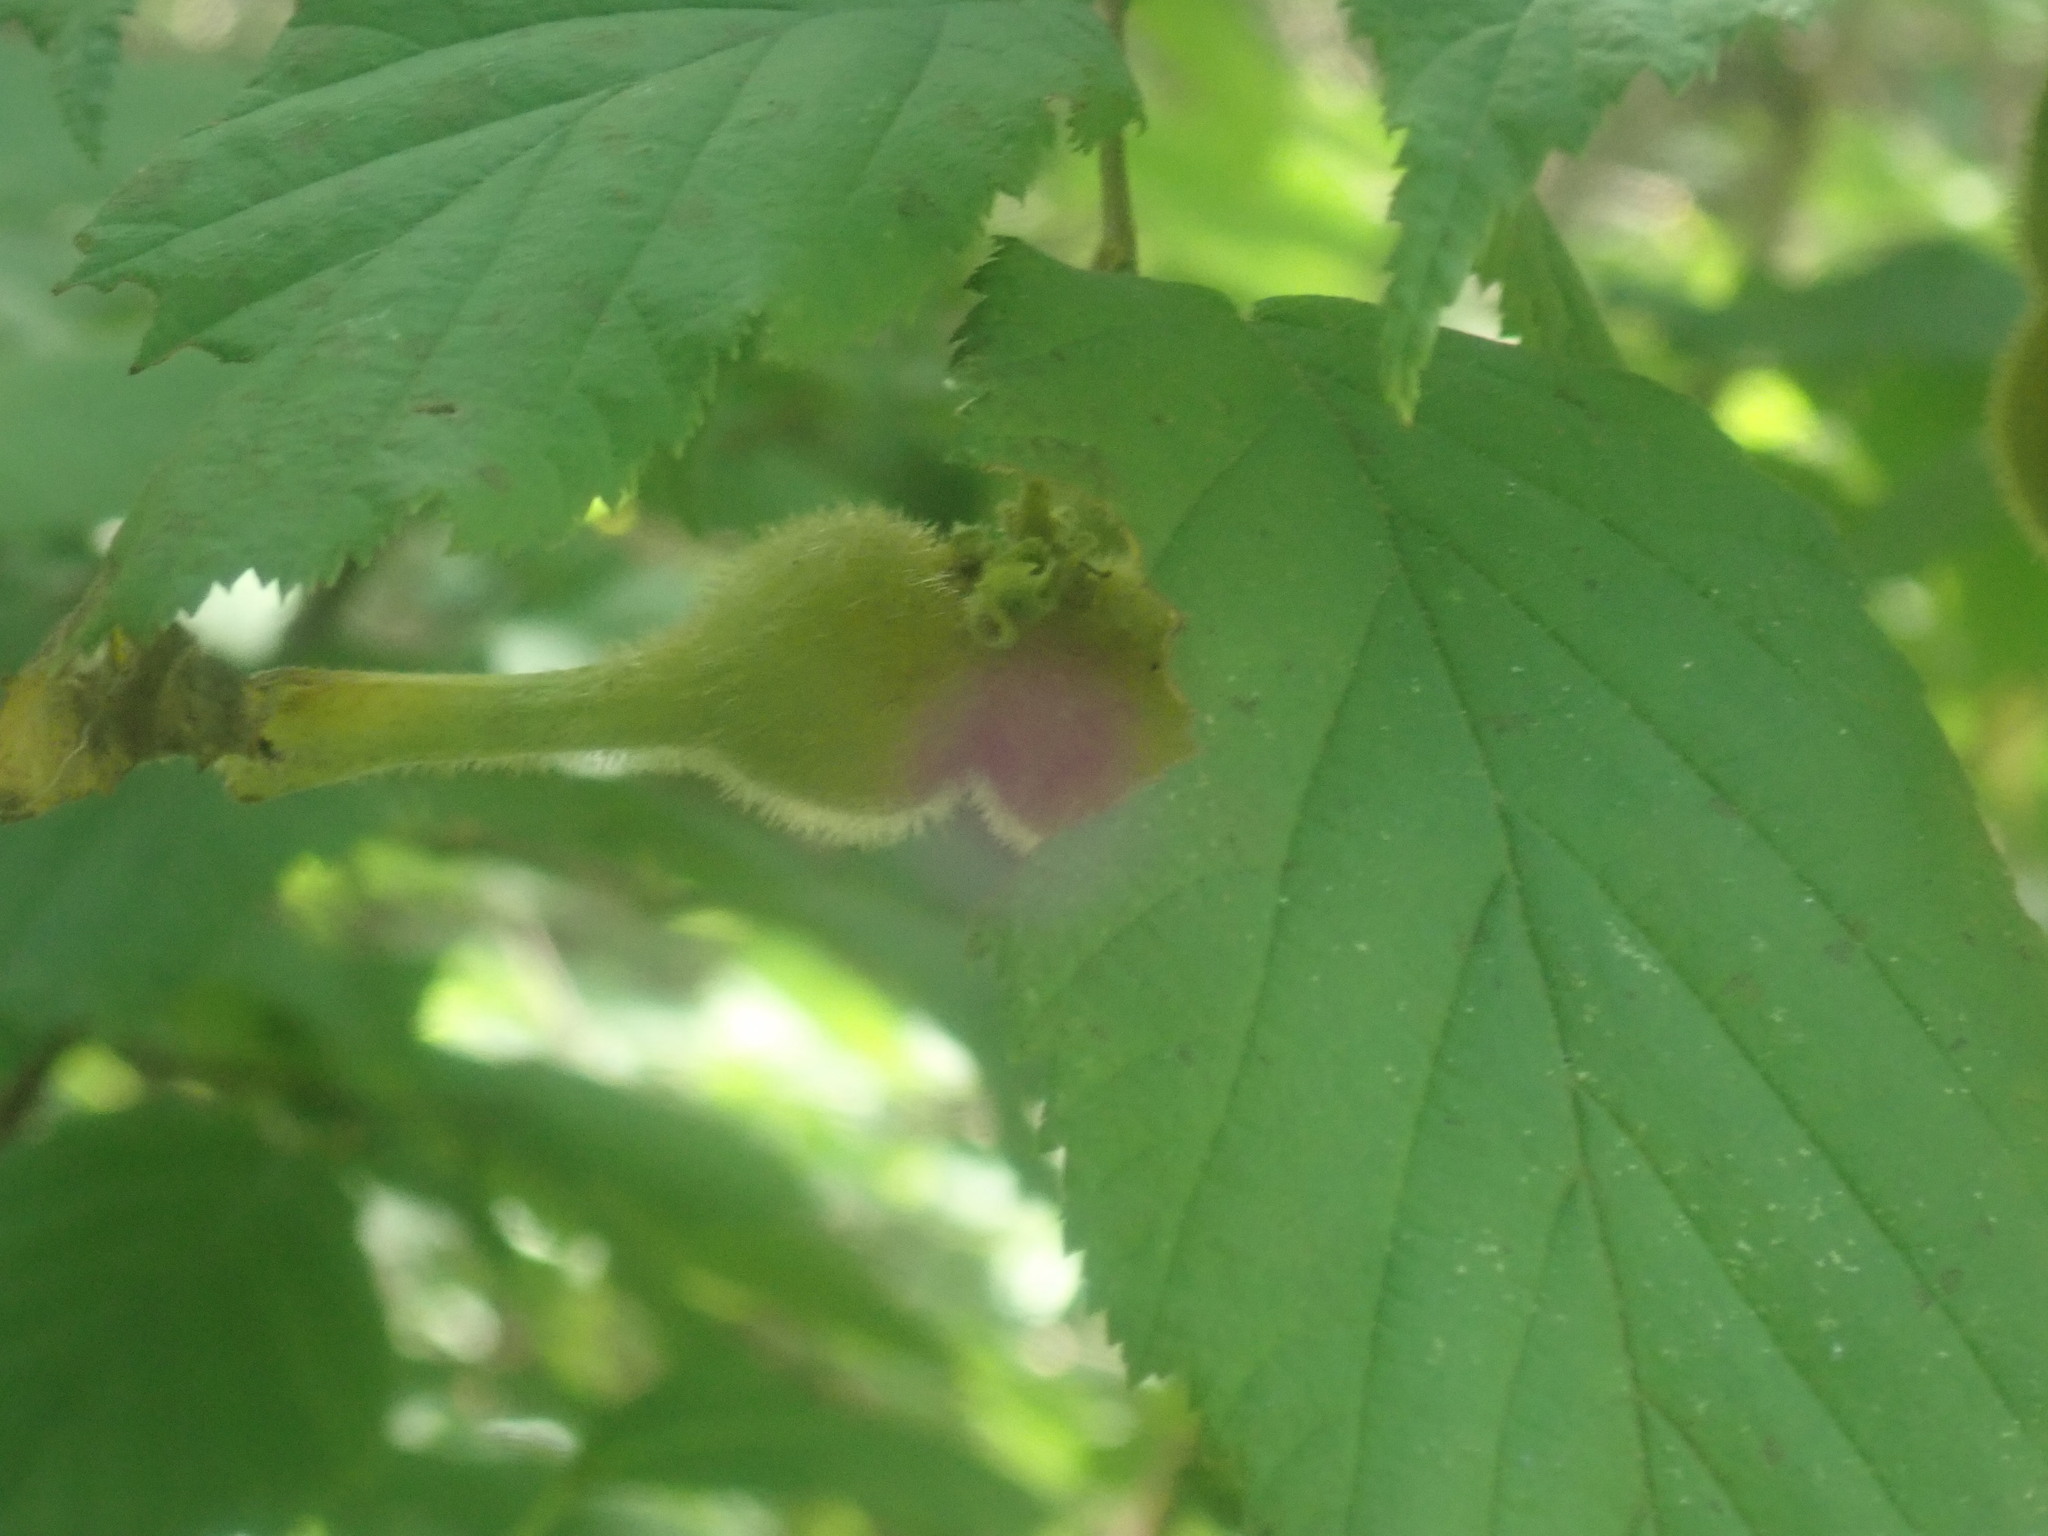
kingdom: Plantae
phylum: Tracheophyta
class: Magnoliopsida
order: Fagales
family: Betulaceae
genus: Corylus
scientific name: Corylus cornuta
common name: Beaked hazel
